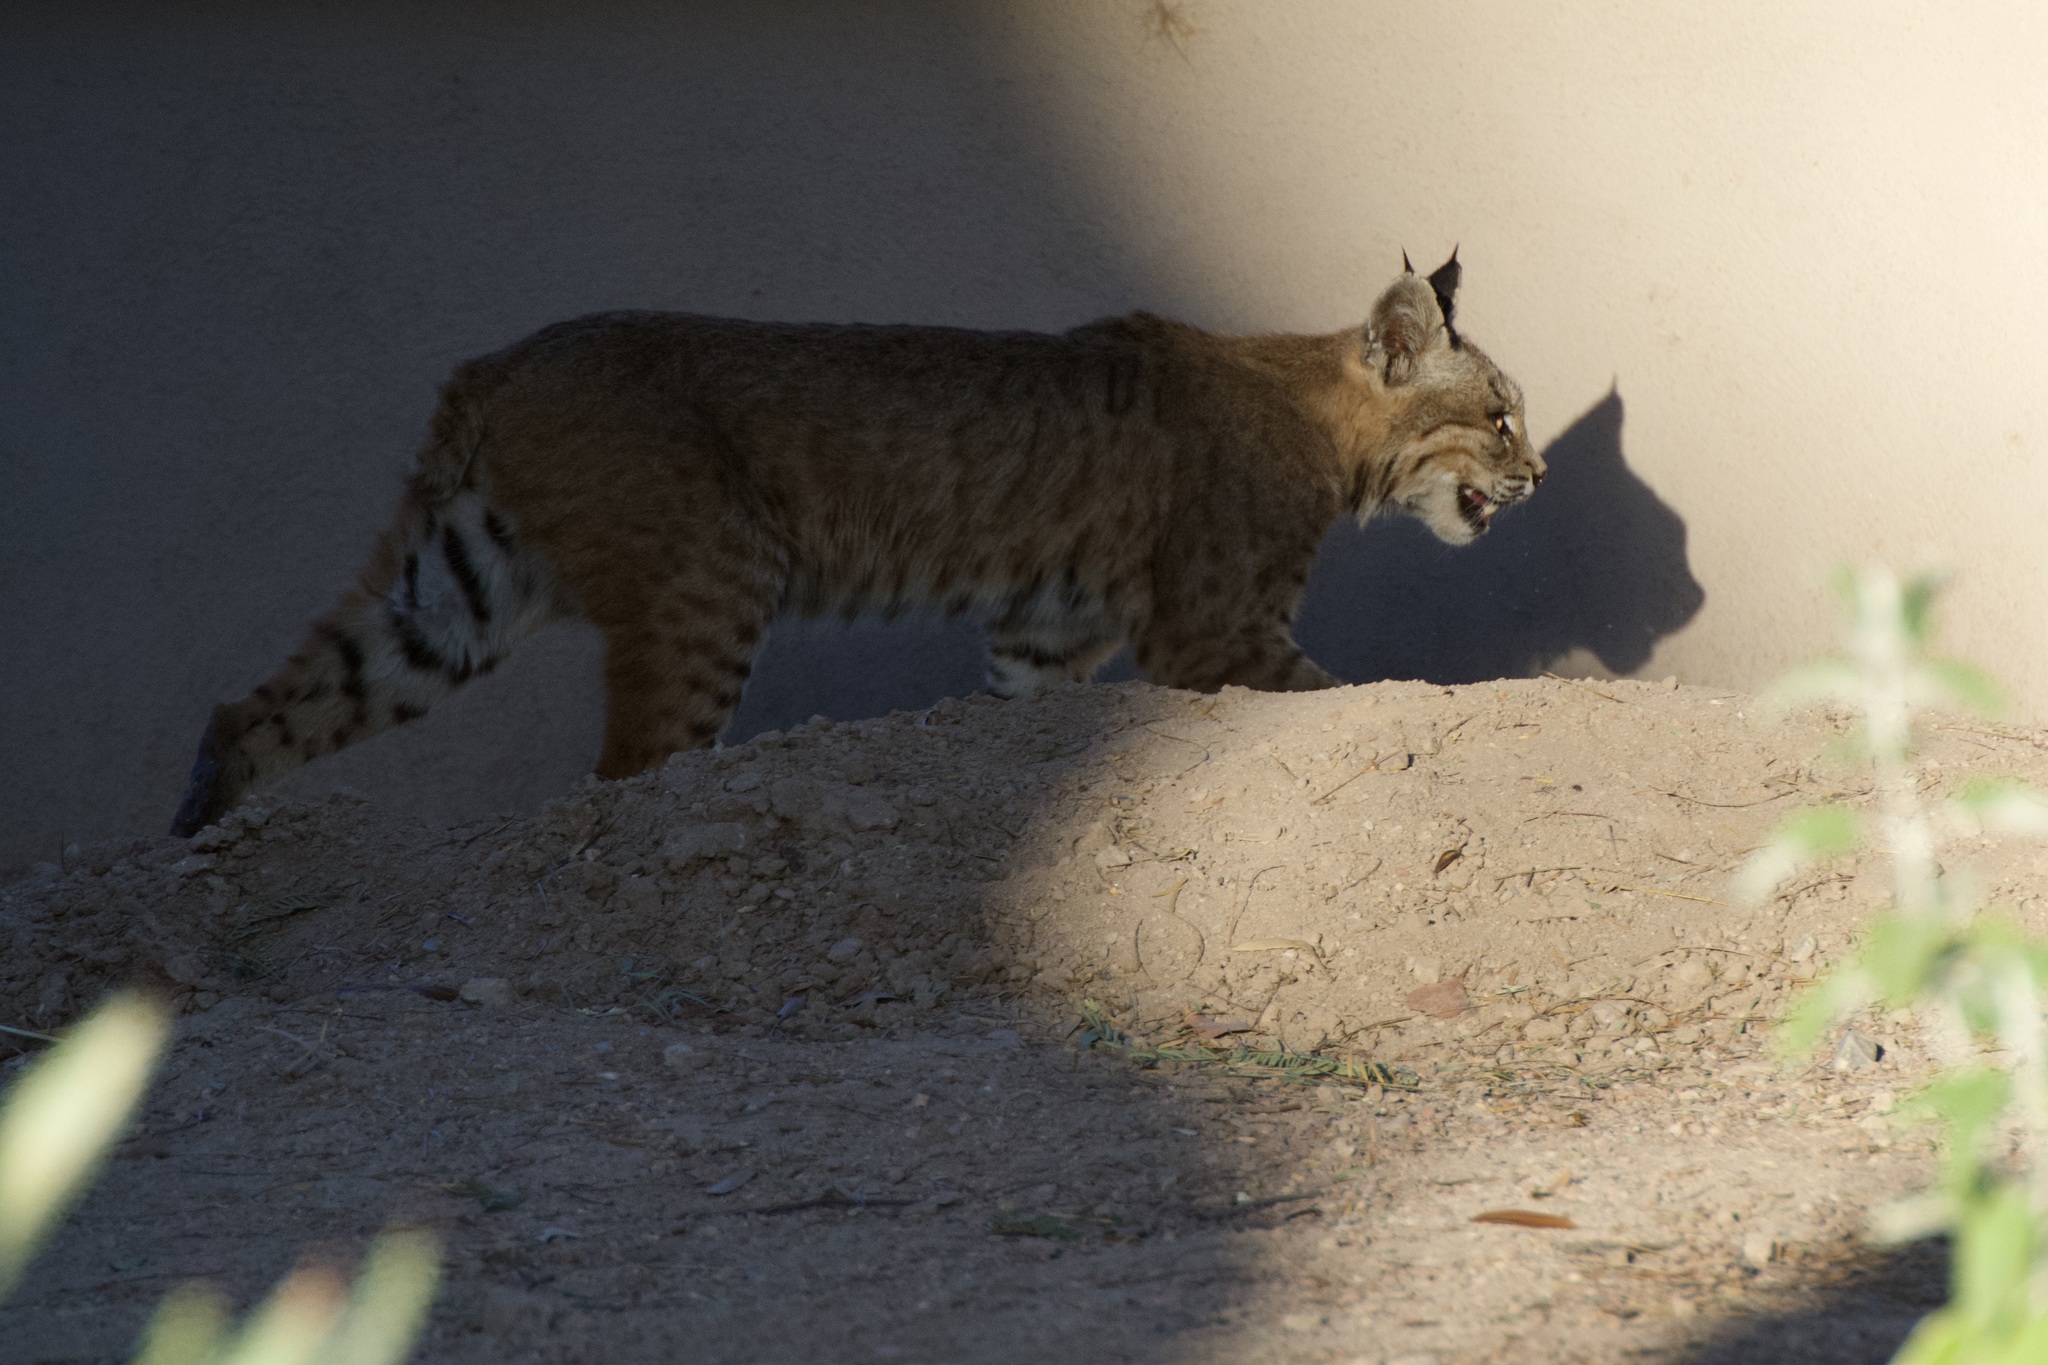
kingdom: Animalia
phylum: Chordata
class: Mammalia
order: Carnivora
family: Felidae
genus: Lynx
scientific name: Lynx rufus
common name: Bobcat
